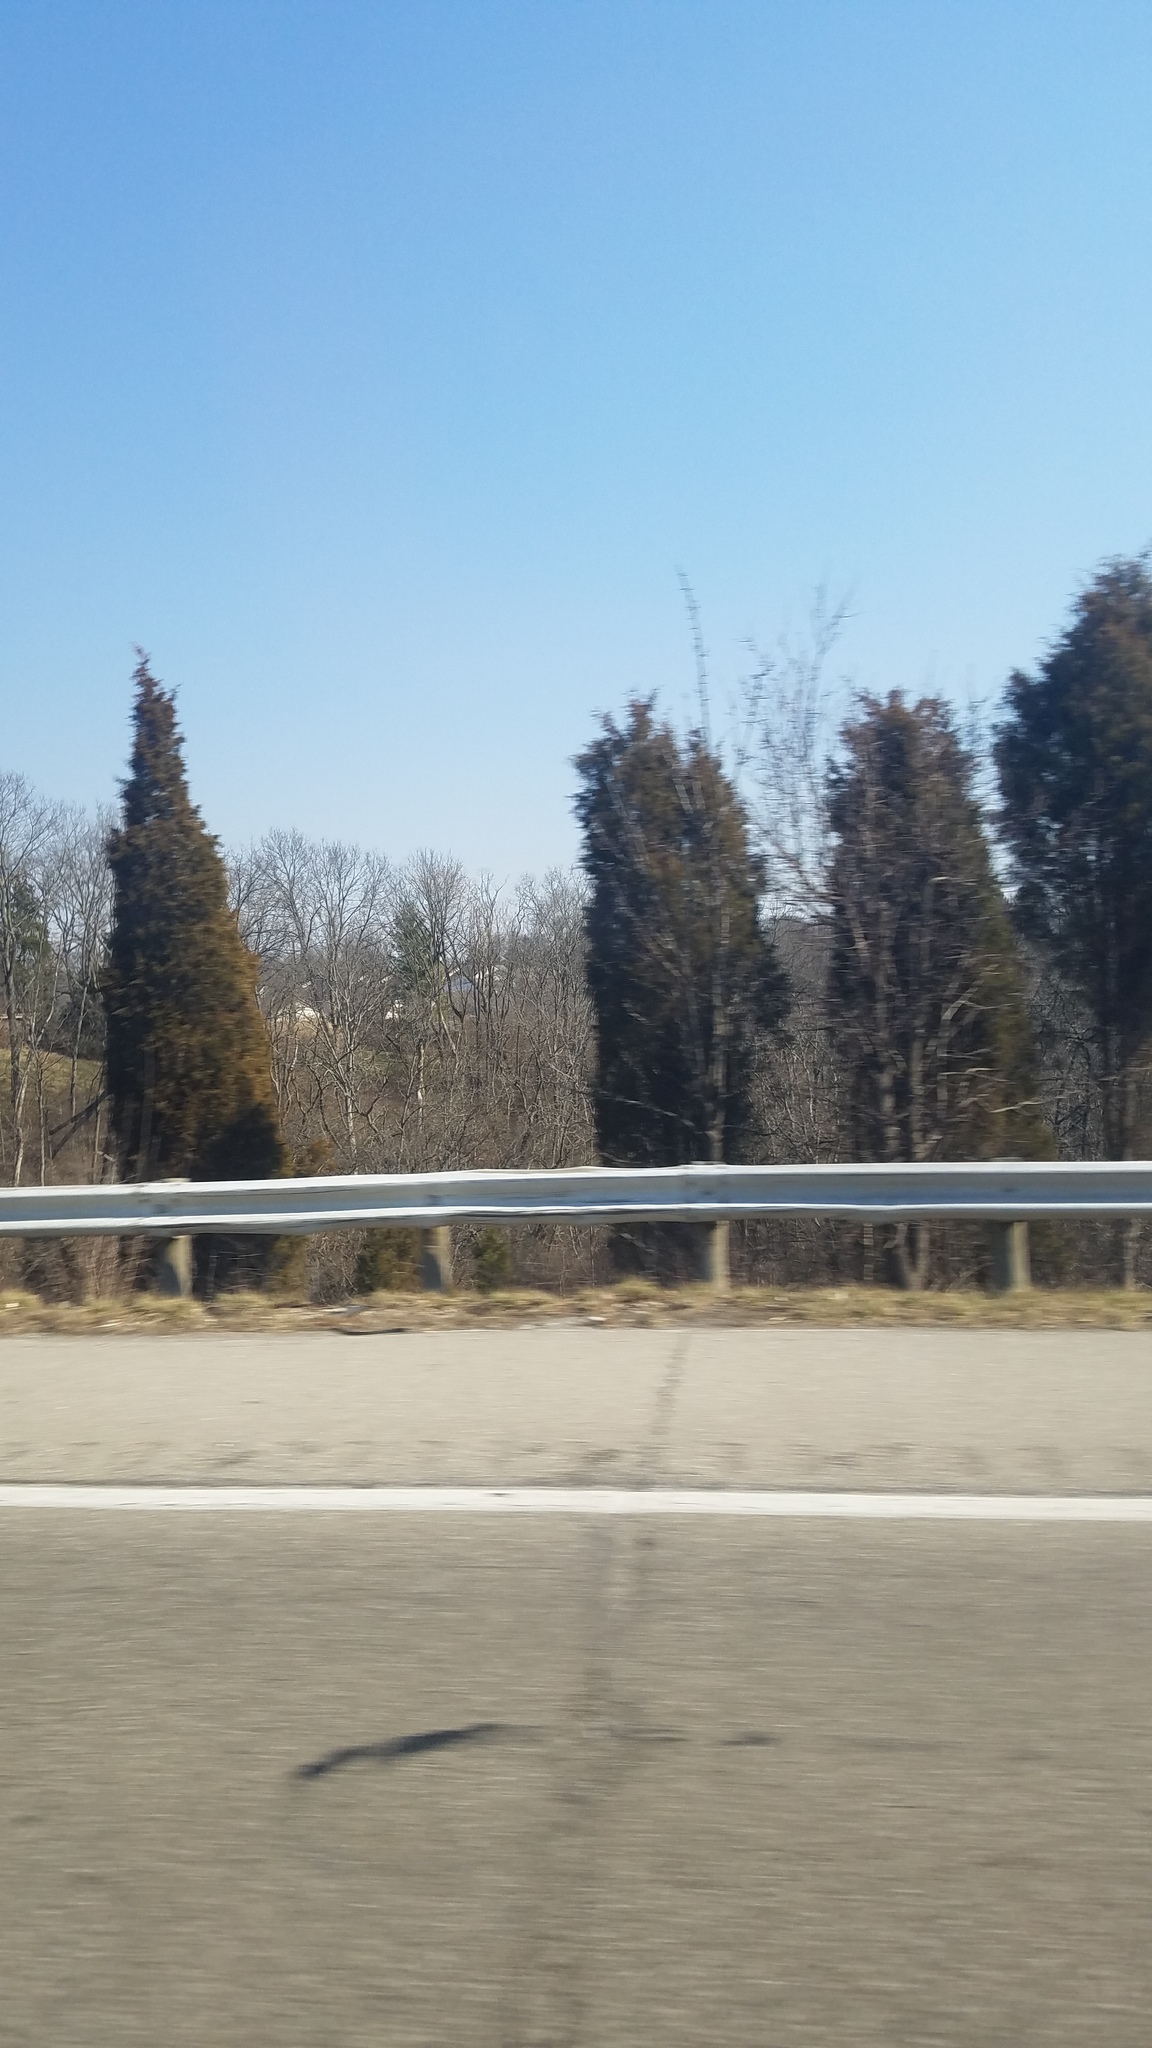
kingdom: Plantae
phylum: Tracheophyta
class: Pinopsida
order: Pinales
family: Cupressaceae
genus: Juniperus
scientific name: Juniperus virginiana
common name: Red juniper
